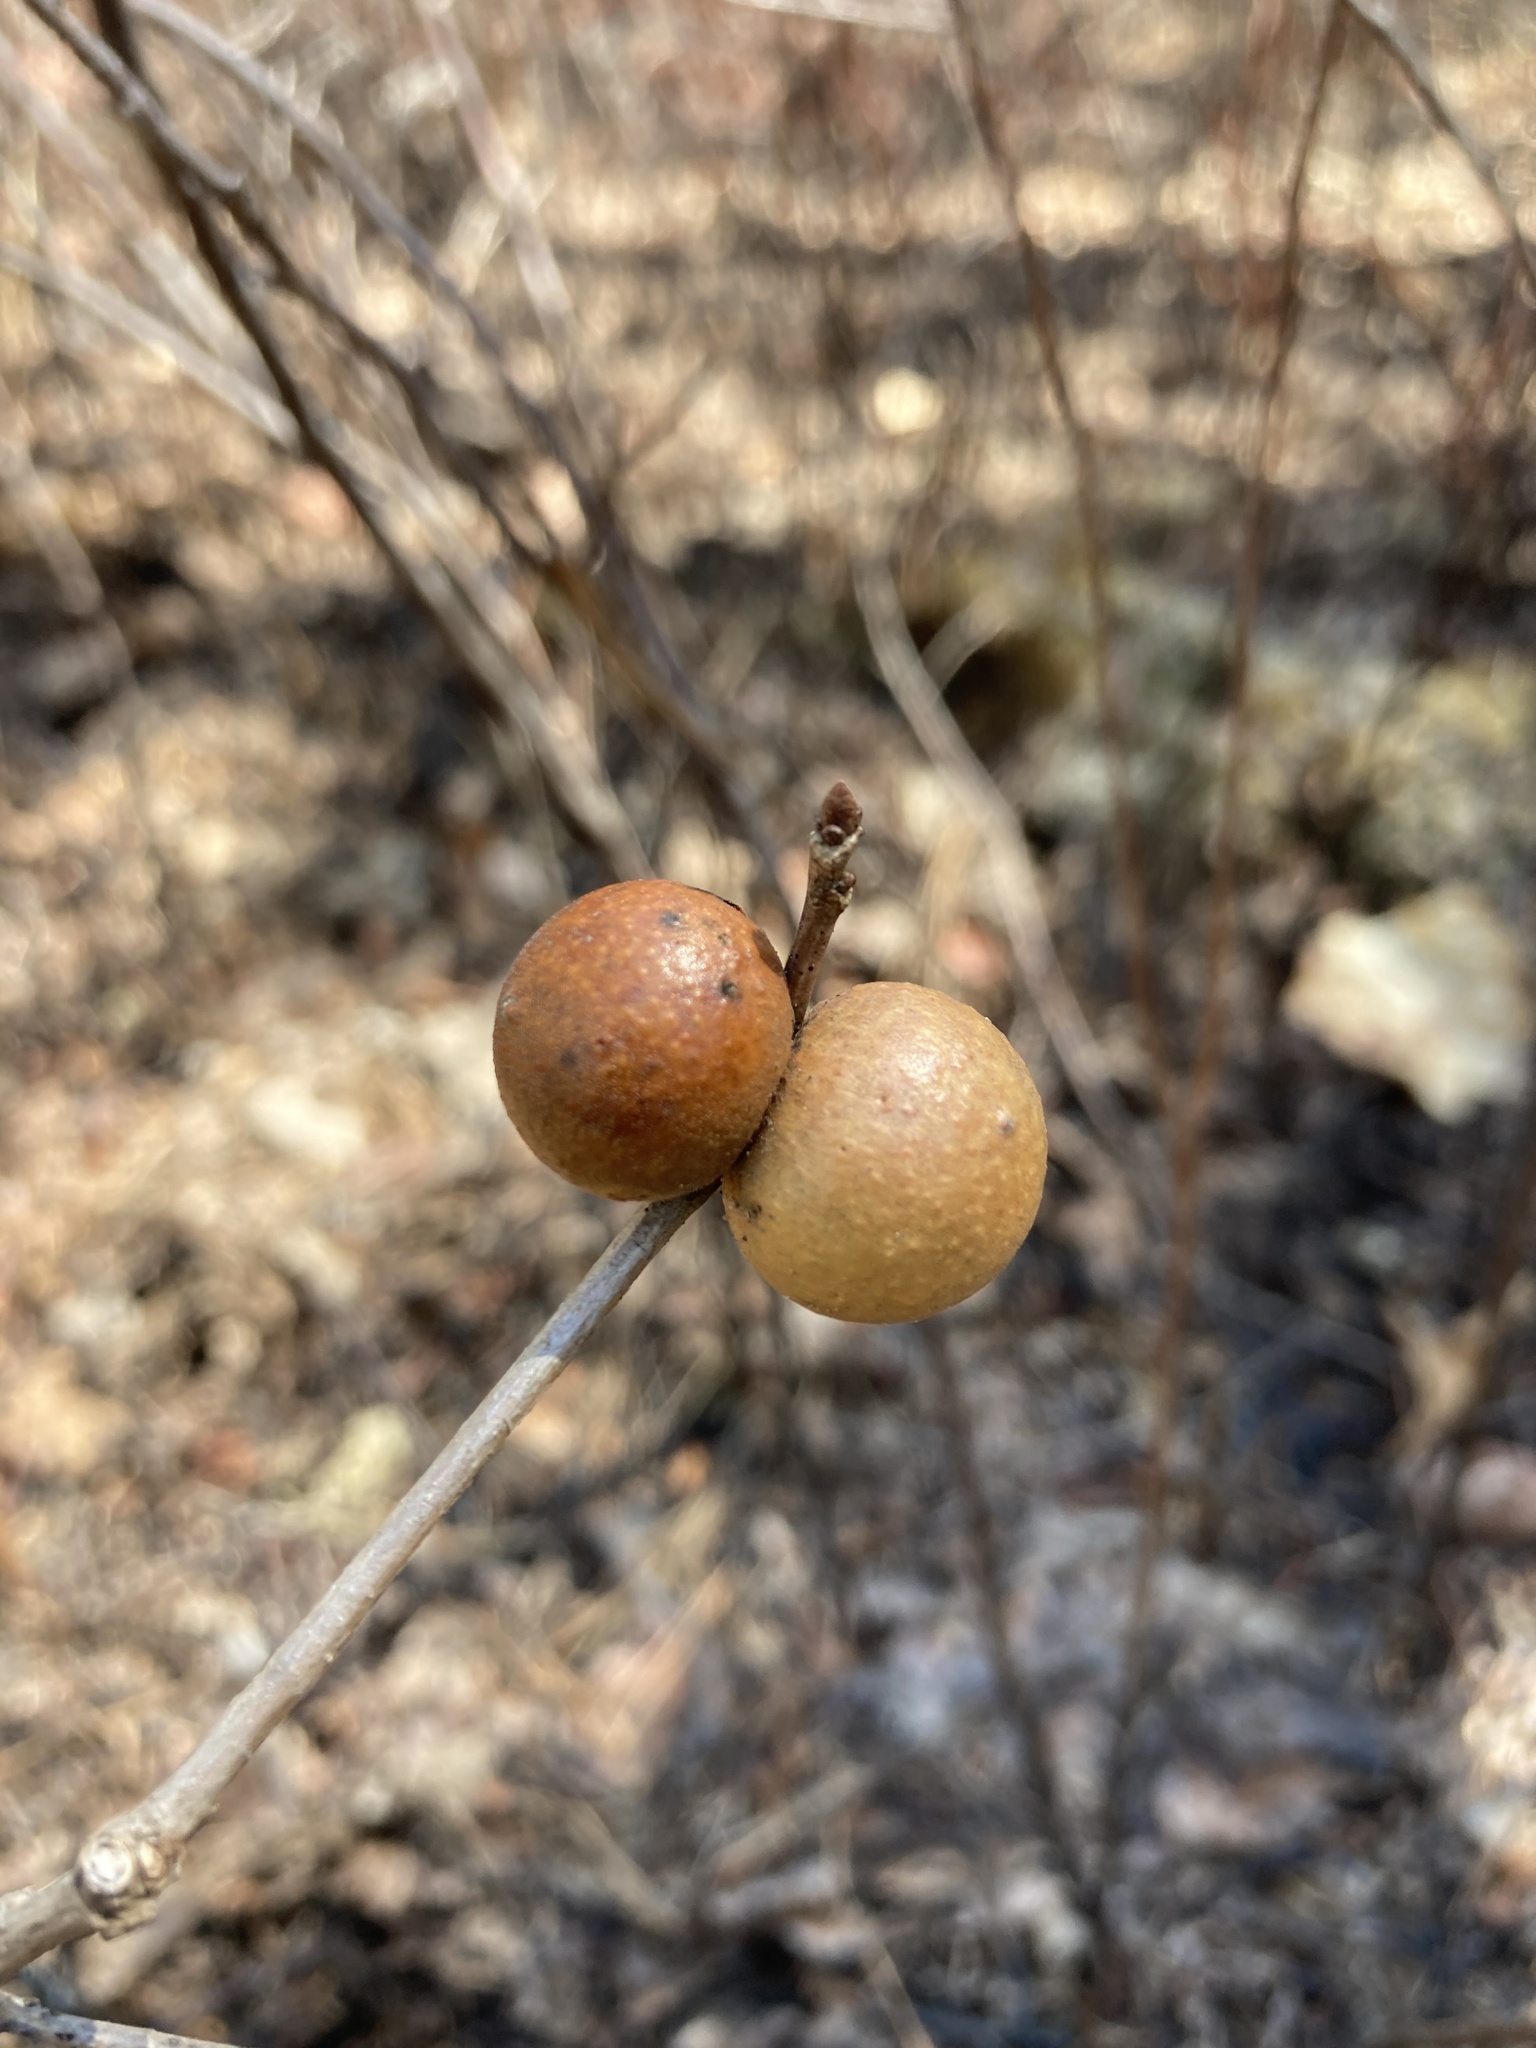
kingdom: Animalia
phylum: Arthropoda
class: Insecta
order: Hymenoptera
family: Cynipidae
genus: Disholcaspis
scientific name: Disholcaspis quercusglobulus
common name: Round bullet gall wasp
